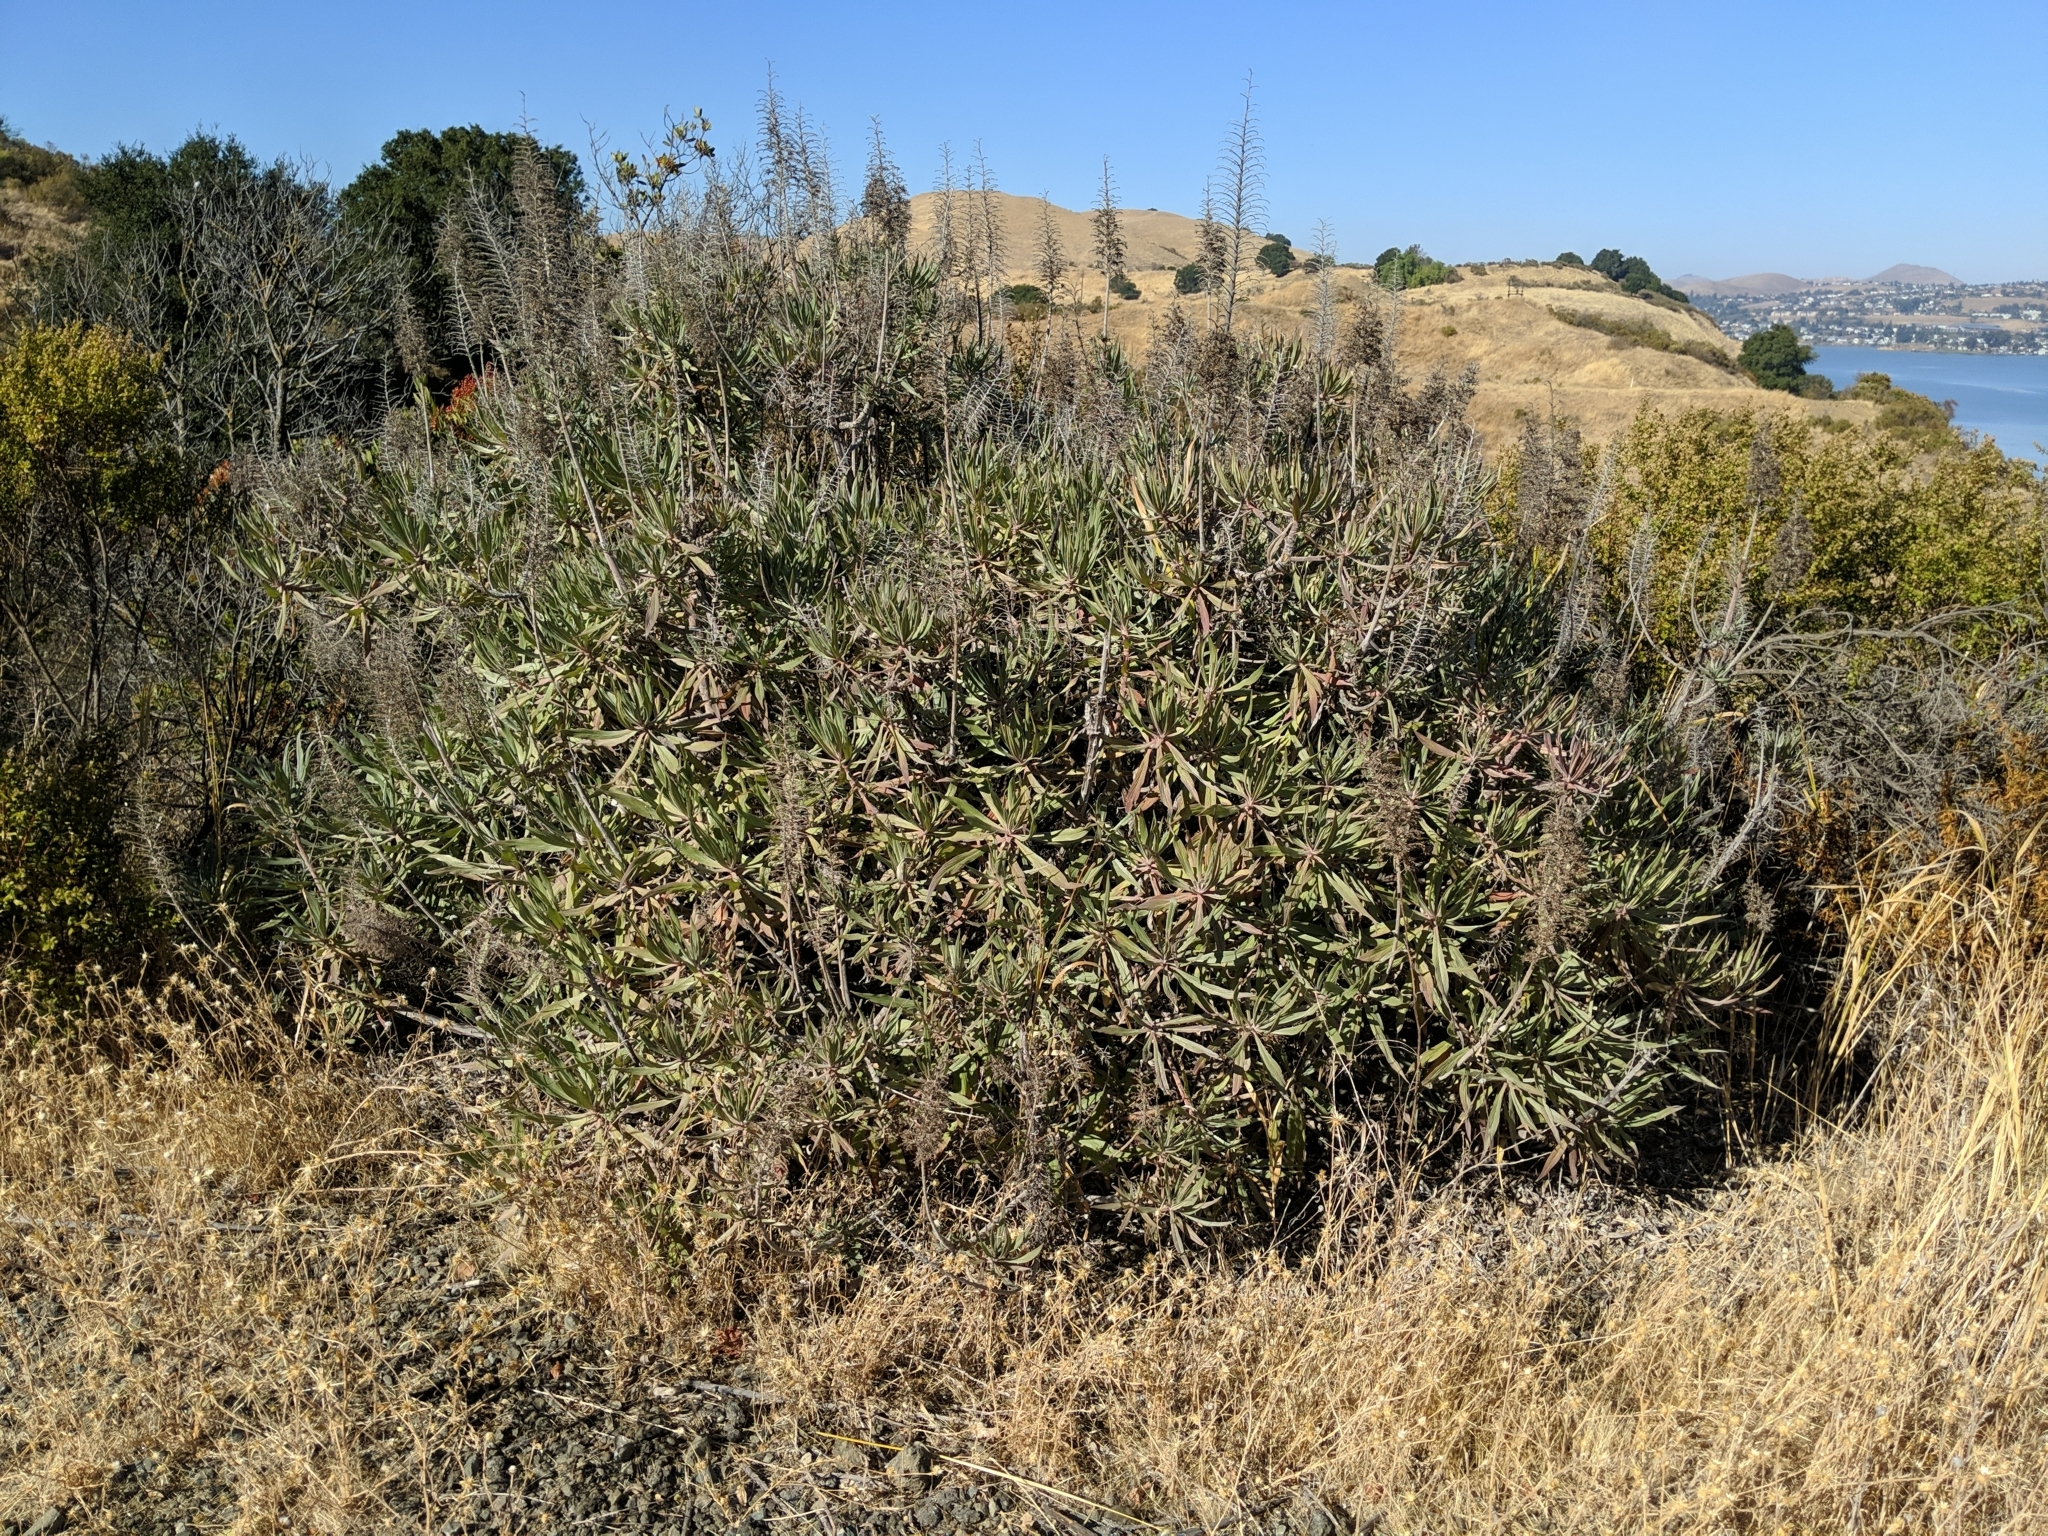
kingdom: Plantae
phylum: Tracheophyta
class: Magnoliopsida
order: Boraginales
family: Boraginaceae
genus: Echium
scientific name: Echium candicans
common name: Pride of madeira
